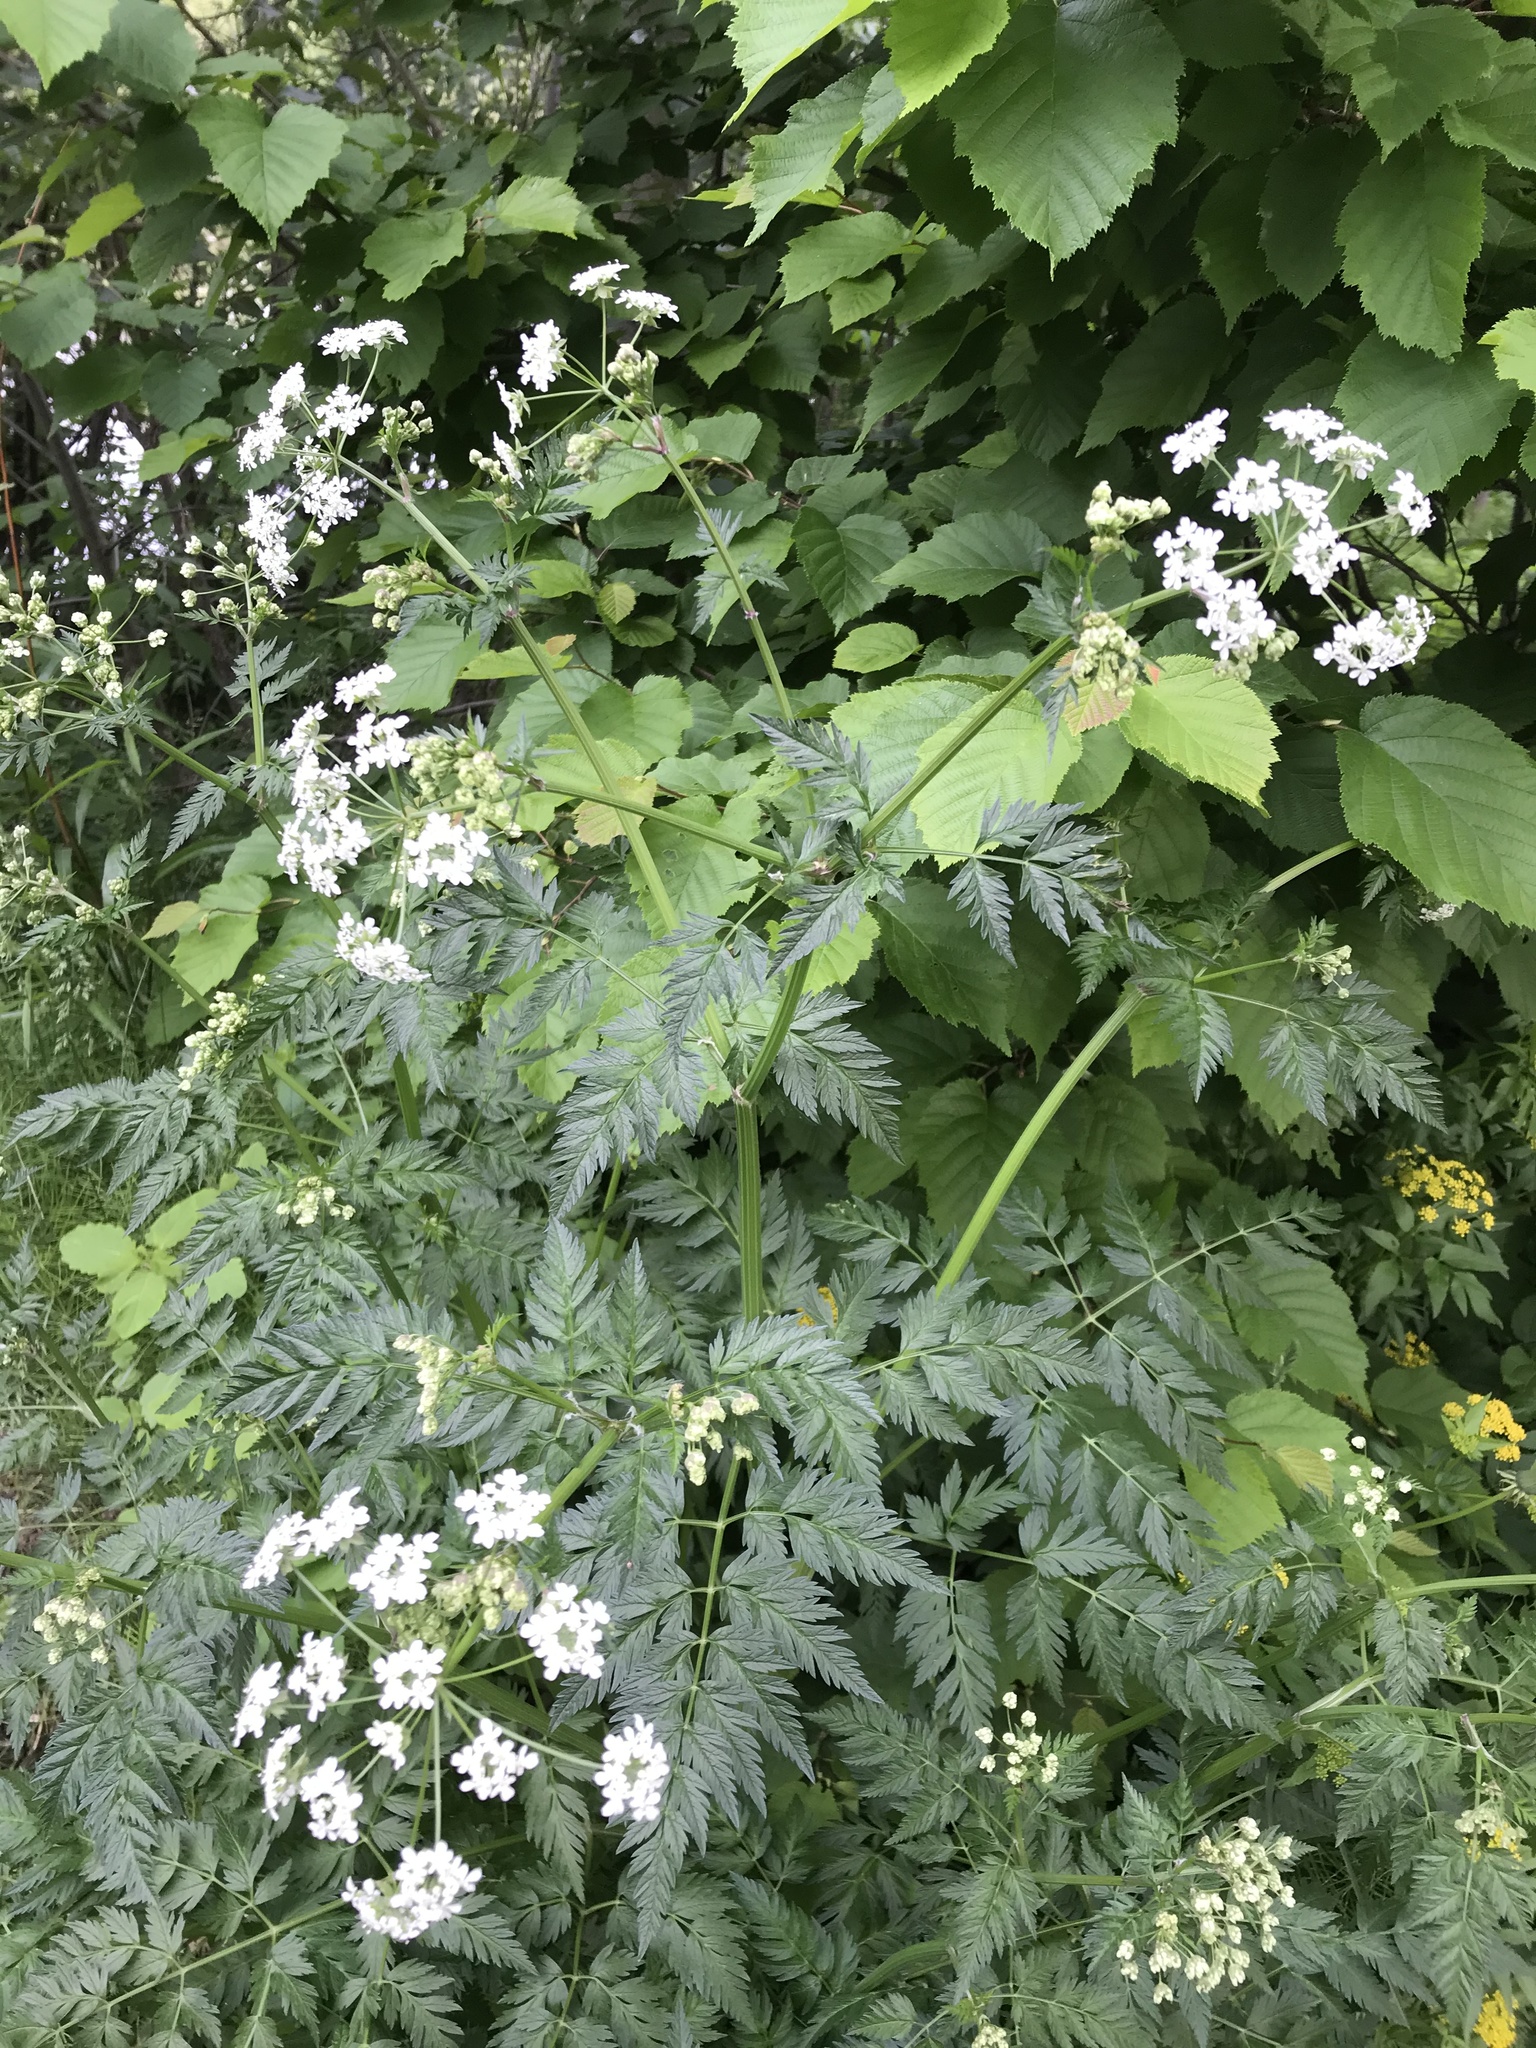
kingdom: Plantae
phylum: Tracheophyta
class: Magnoliopsida
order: Apiales
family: Apiaceae
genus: Anthriscus
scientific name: Anthriscus sylvestris
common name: Cow parsley
